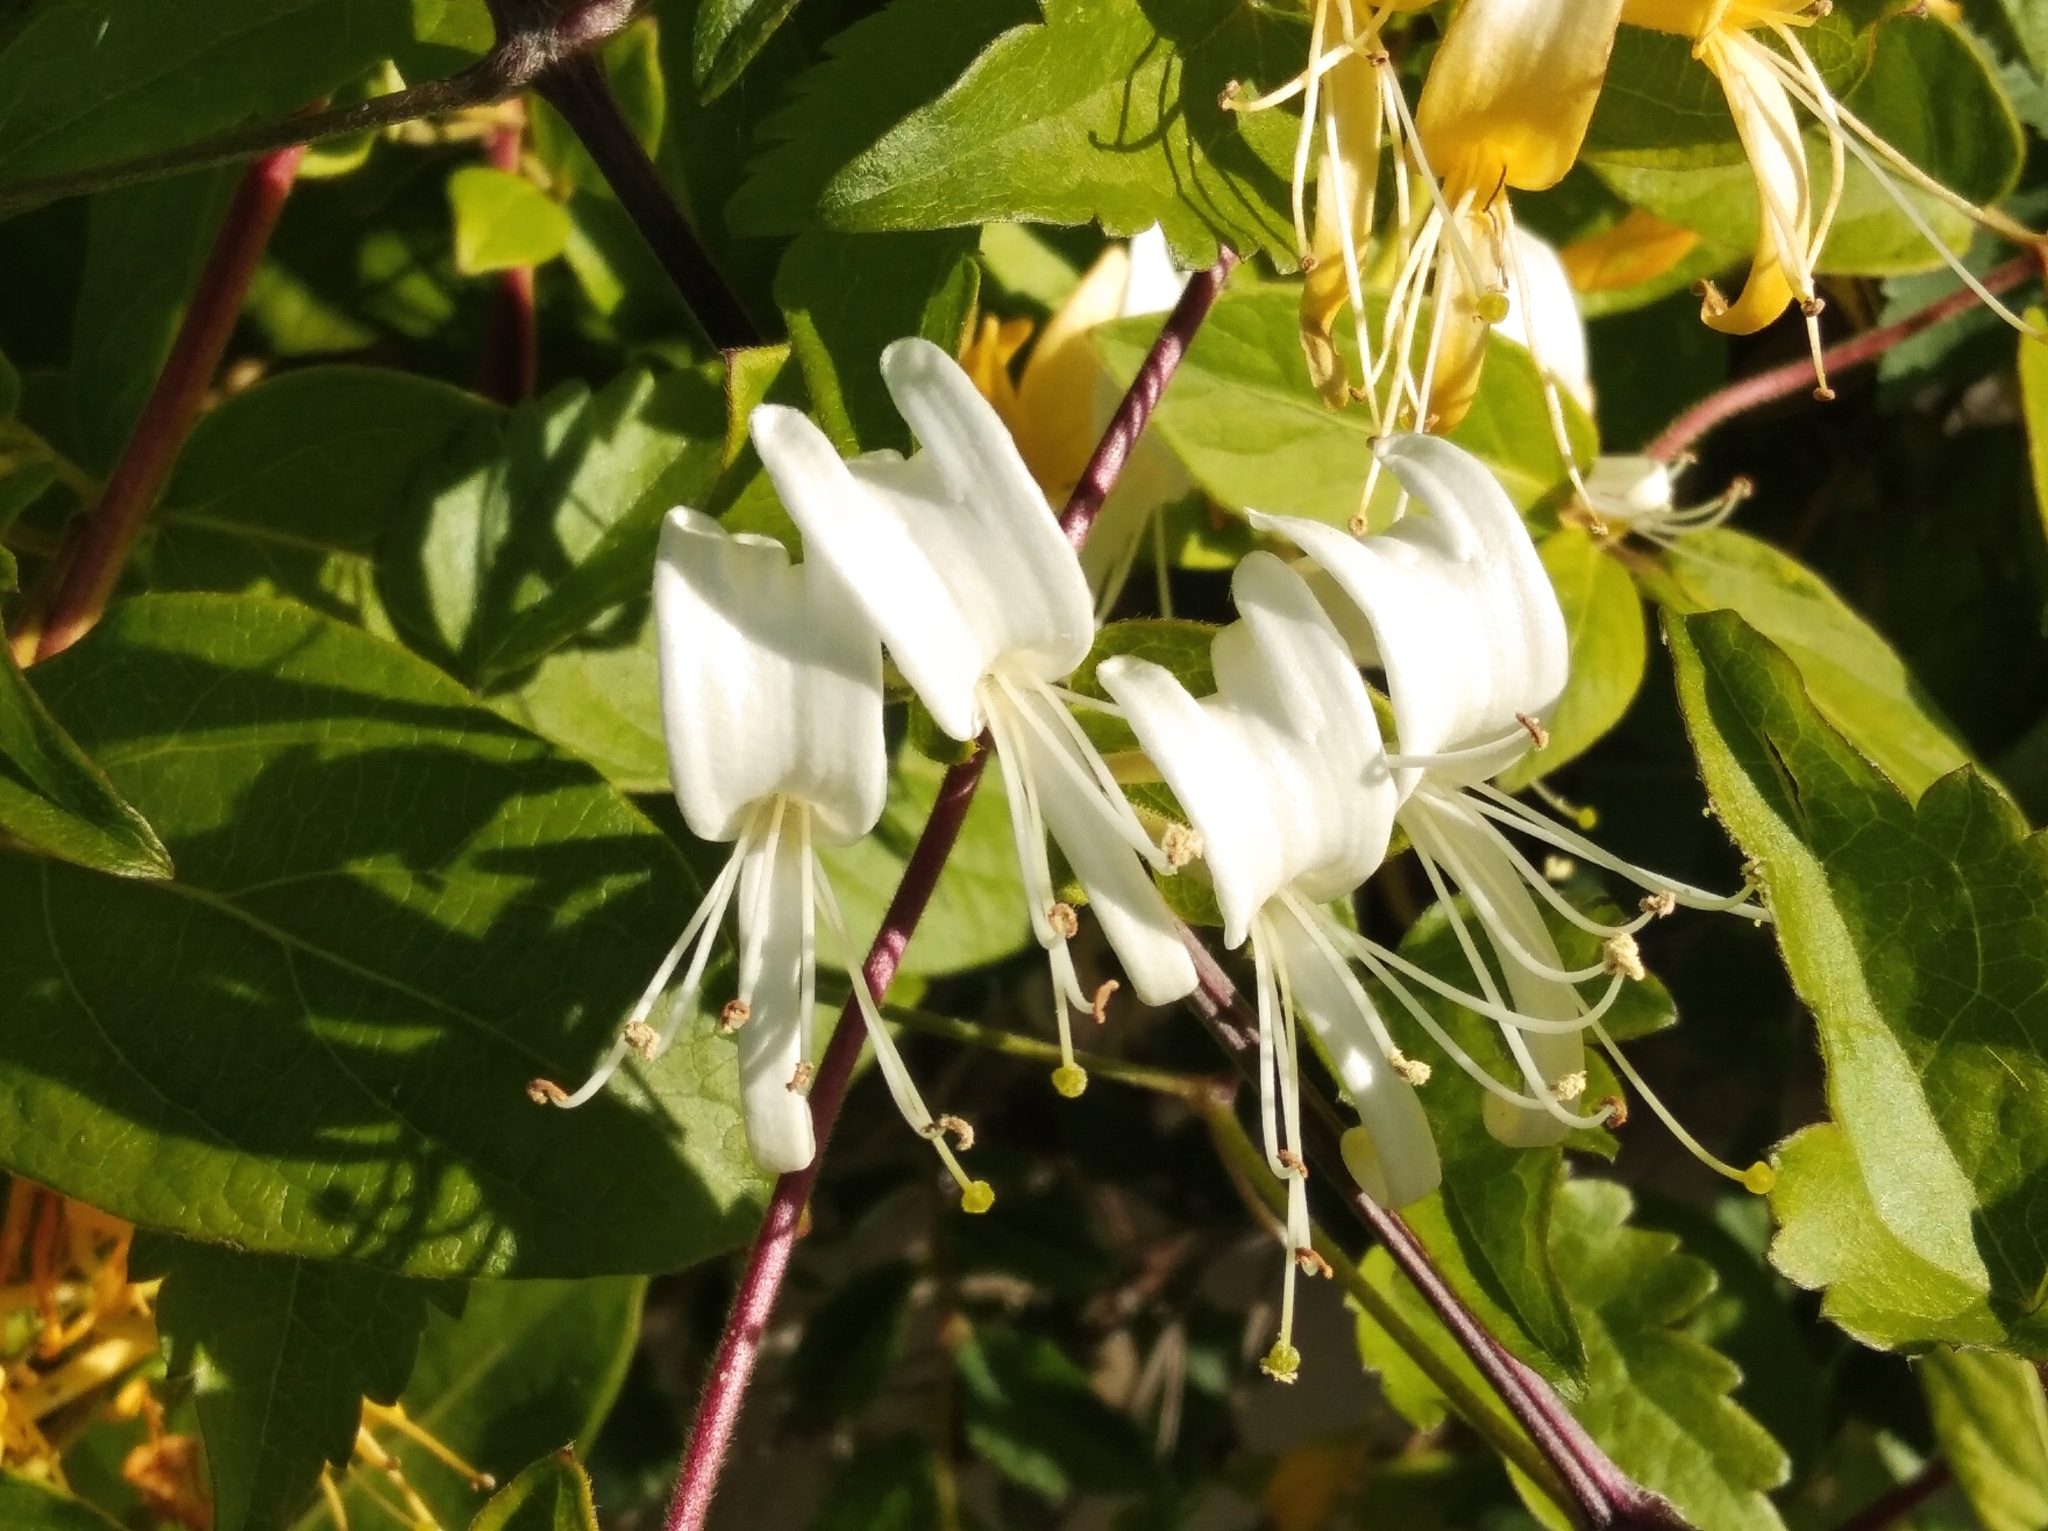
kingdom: Plantae
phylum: Tracheophyta
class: Magnoliopsida
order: Dipsacales
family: Caprifoliaceae
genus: Lonicera
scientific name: Lonicera japonica
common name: Japanese honeysuckle
